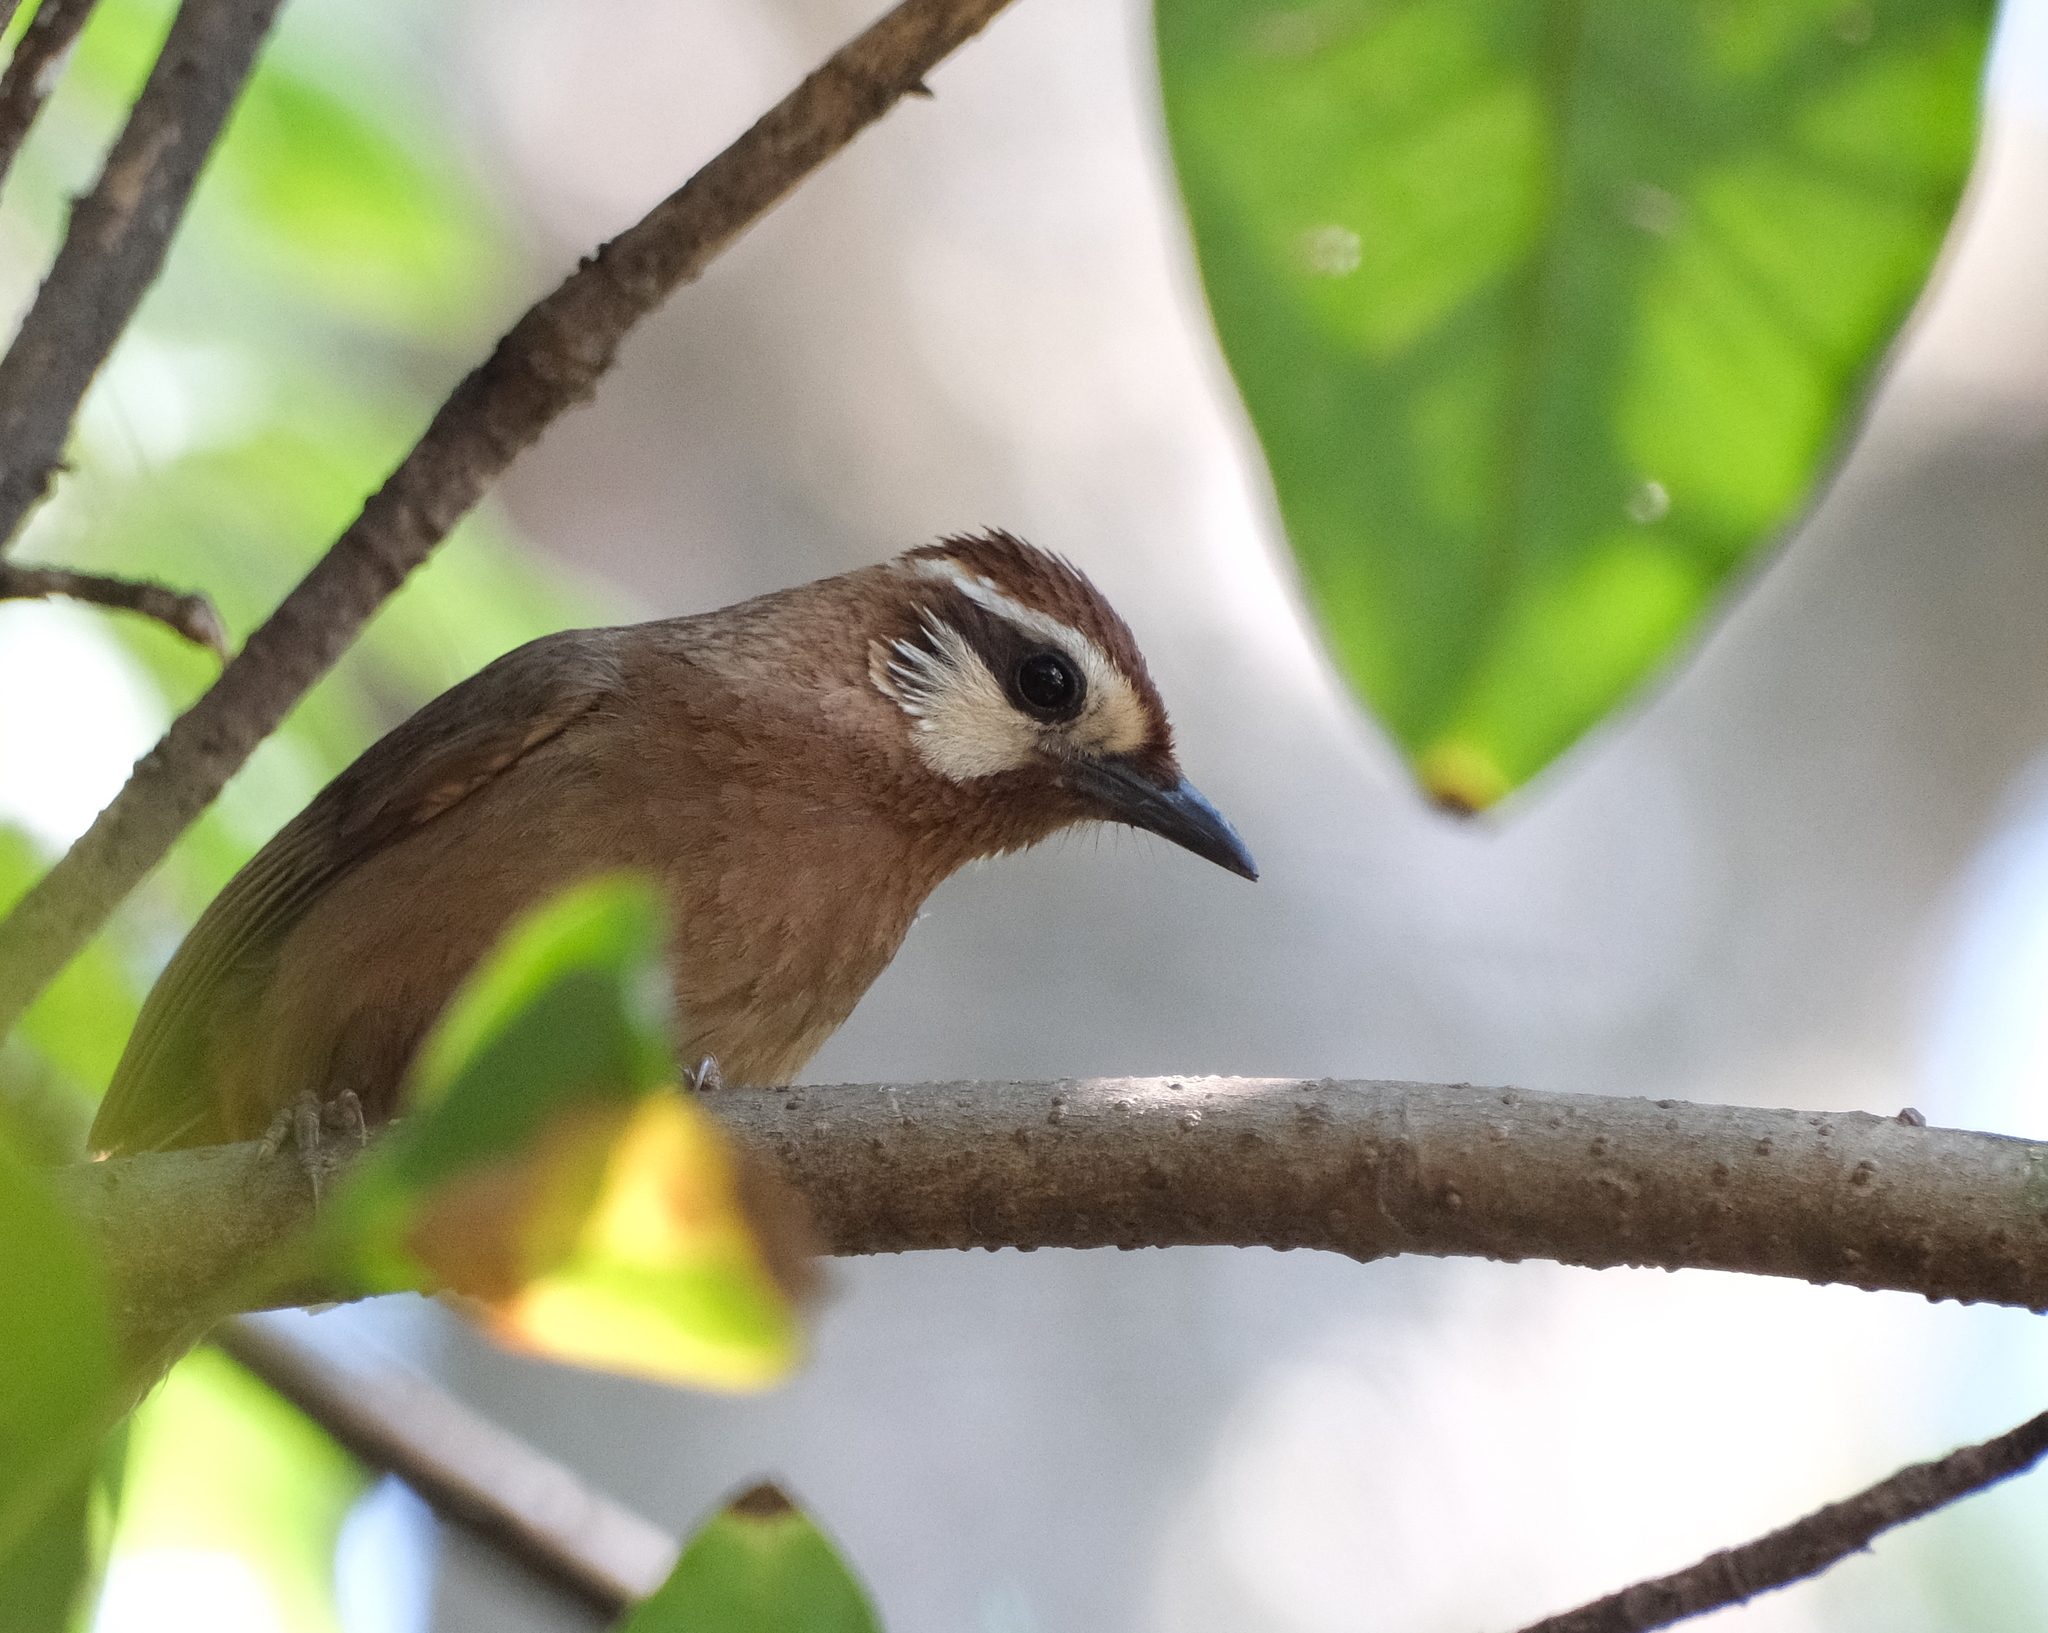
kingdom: Animalia
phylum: Chordata
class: Aves
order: Passeriformes
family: Leiothrichidae
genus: Pterorhinus
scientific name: Pterorhinus sannio
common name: White-browed laughingthrush
